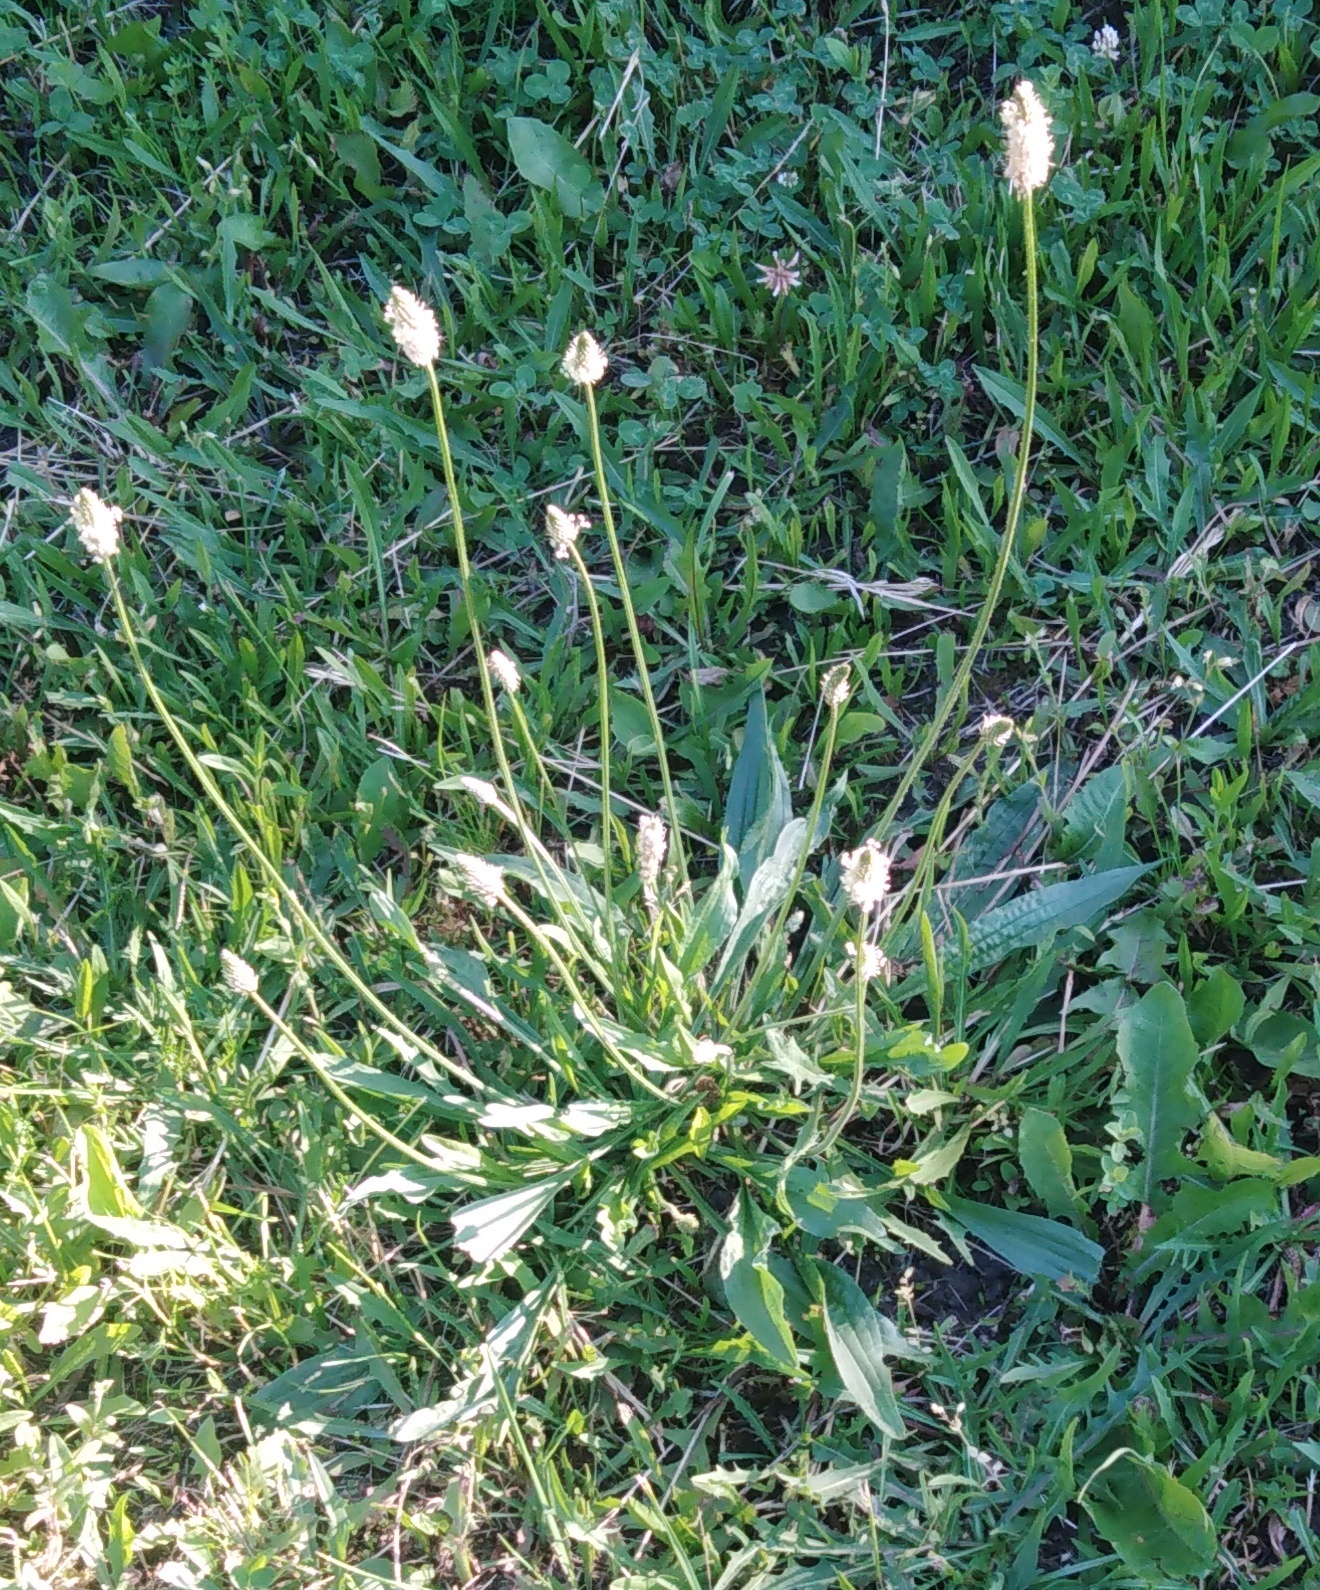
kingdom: Plantae
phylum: Tracheophyta
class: Magnoliopsida
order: Lamiales
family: Plantaginaceae
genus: Plantago
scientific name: Plantago lanceolata
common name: Ribwort plantain
